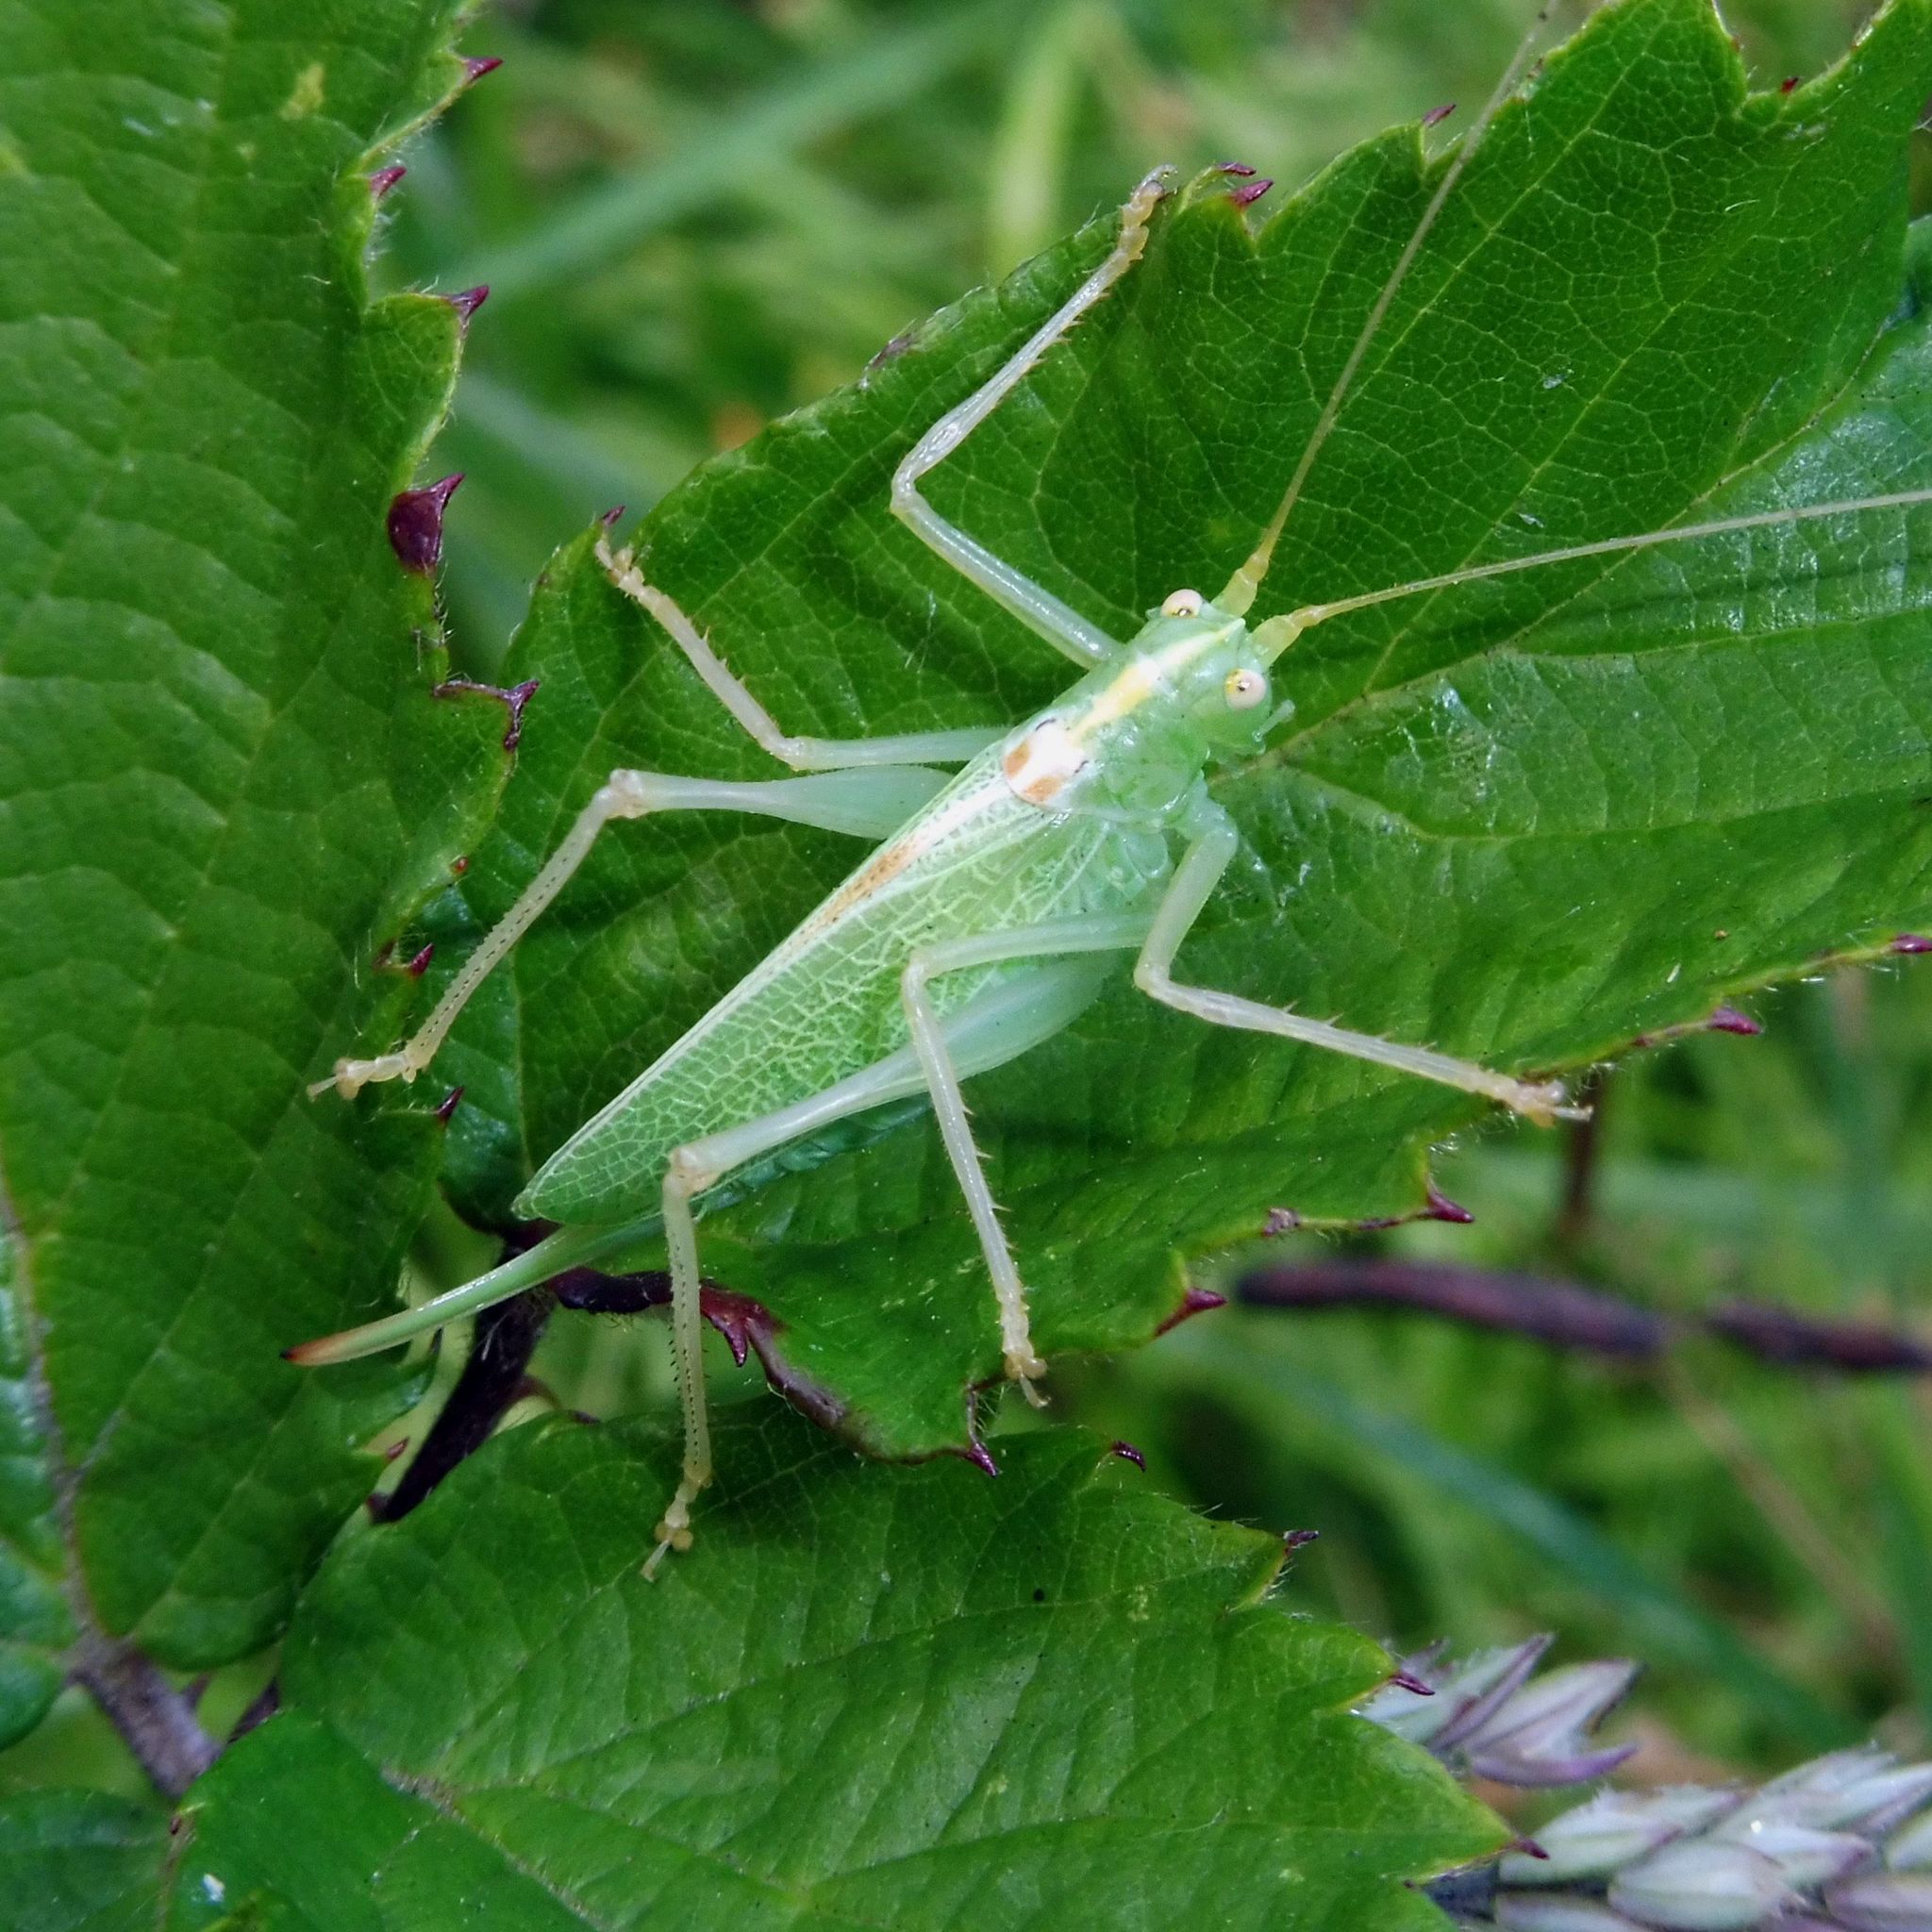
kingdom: Animalia
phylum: Arthropoda
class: Insecta
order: Orthoptera
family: Tettigoniidae
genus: Meconema
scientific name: Meconema thalassinum
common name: Oak bush-cricket
